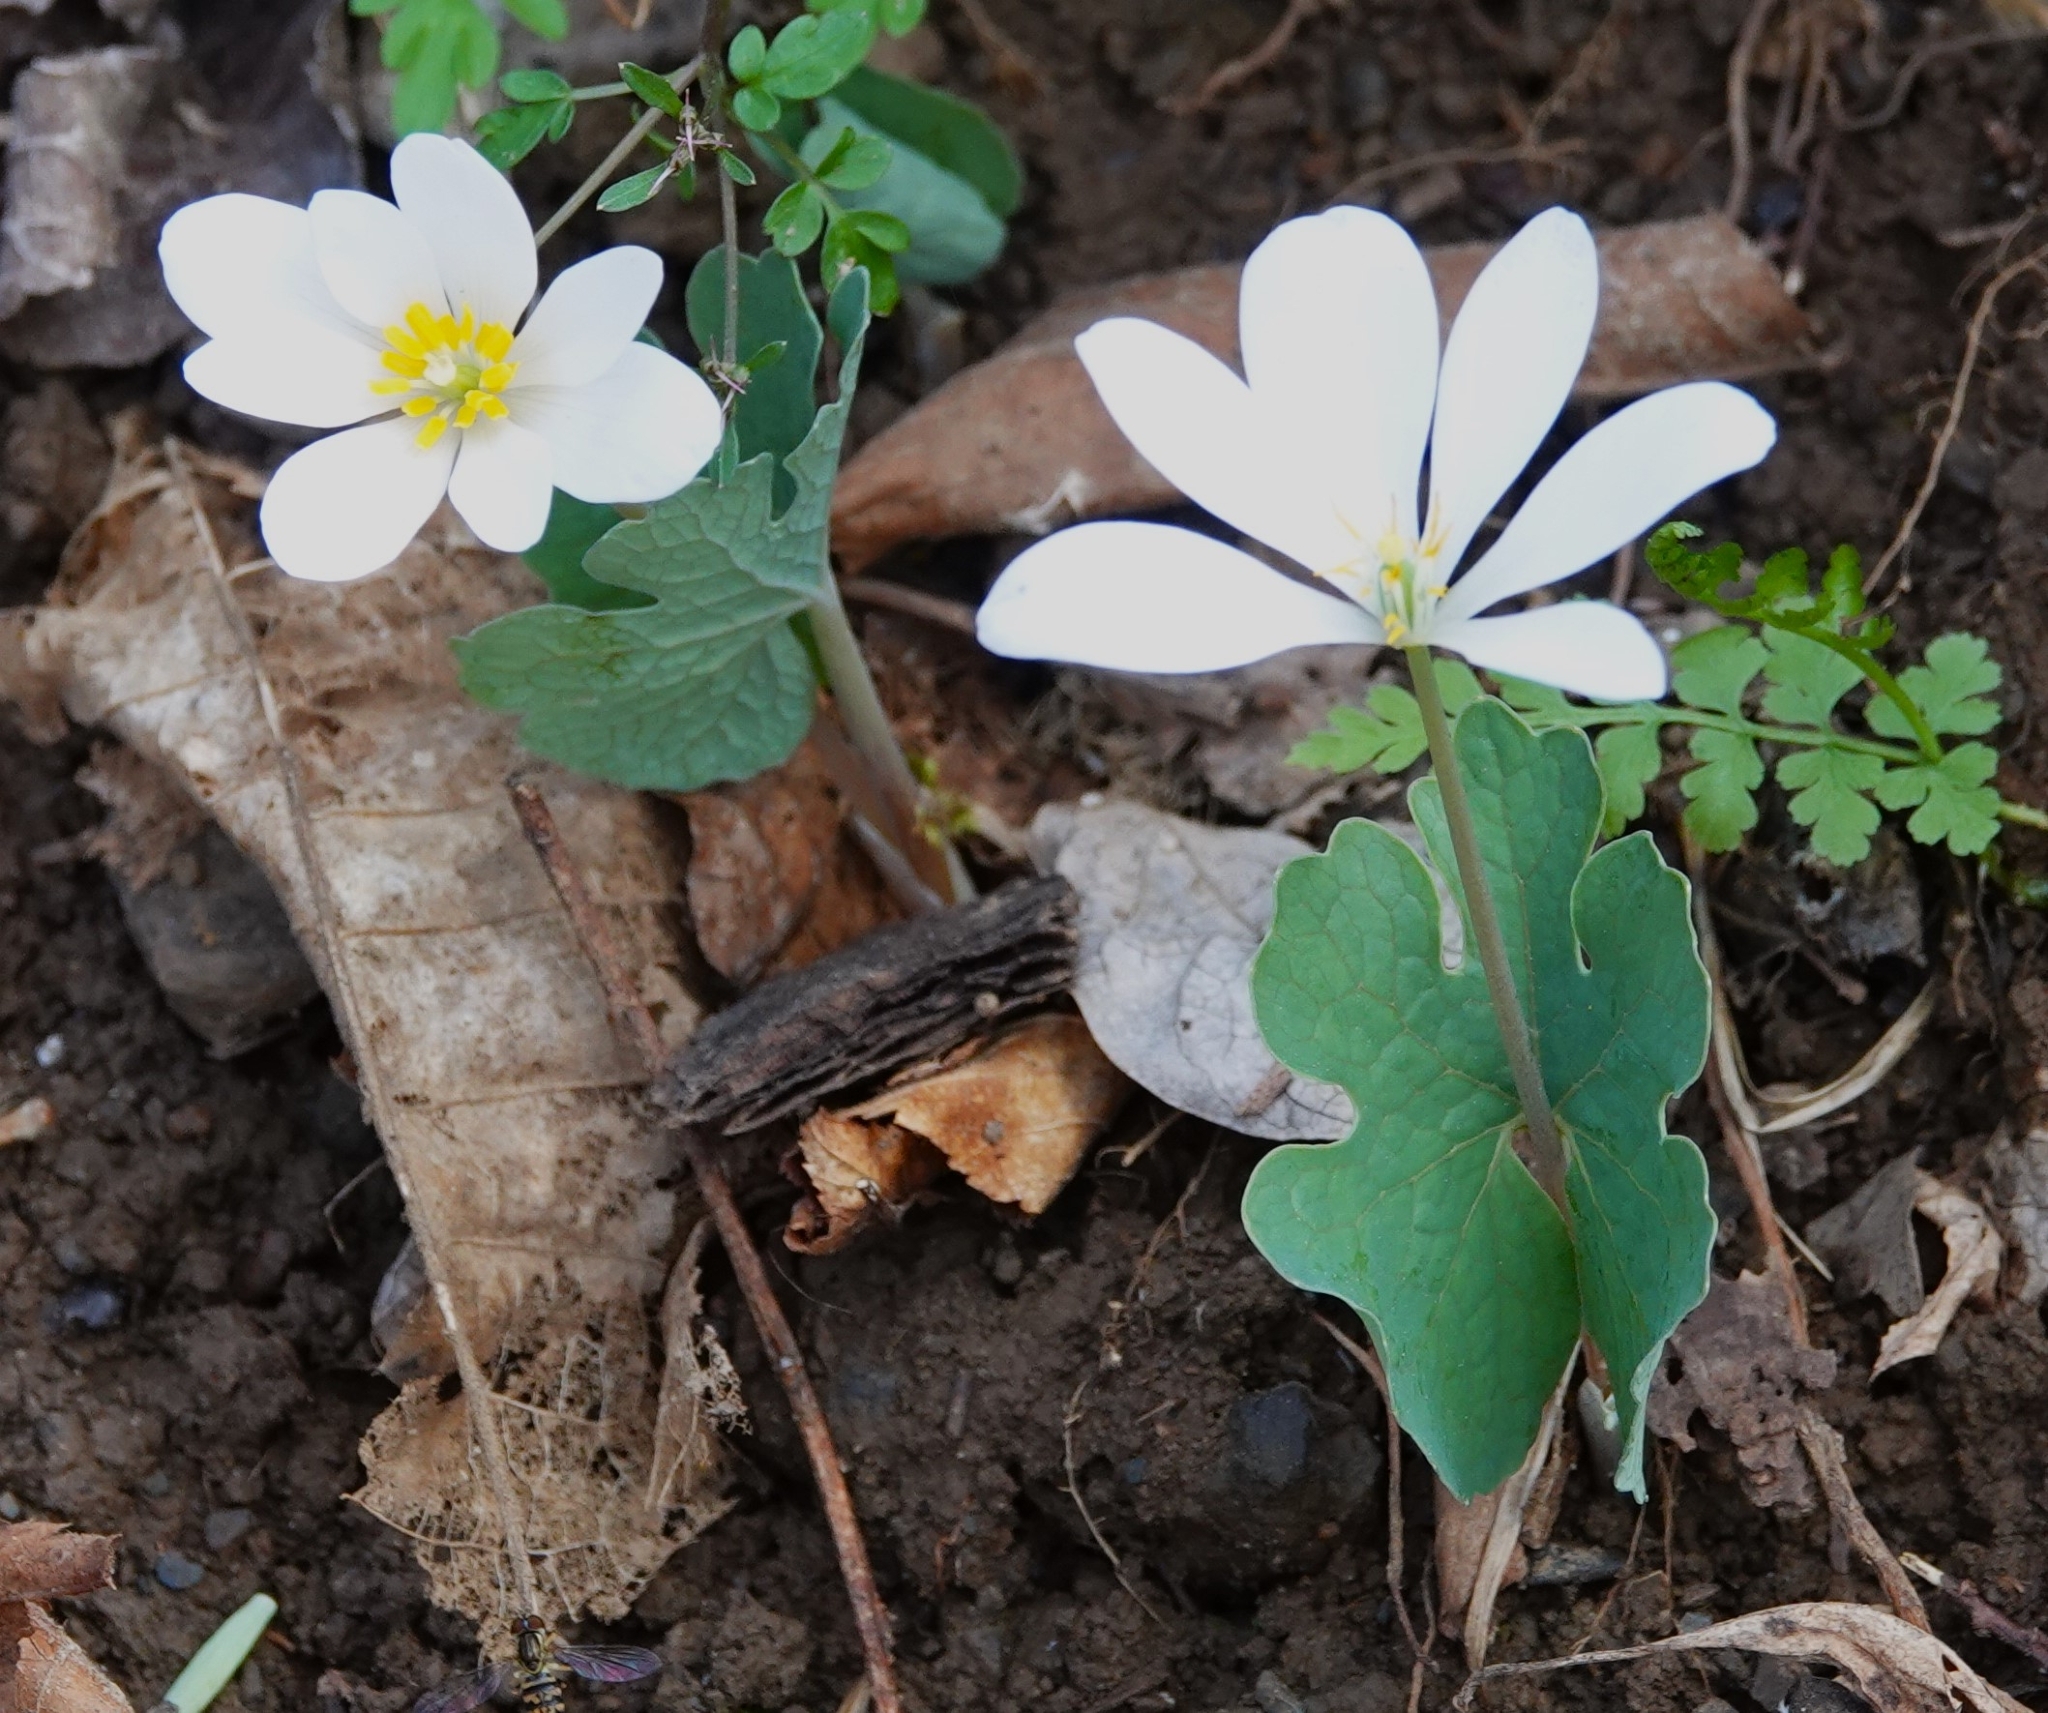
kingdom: Plantae
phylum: Tracheophyta
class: Magnoliopsida
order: Ranunculales
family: Papaveraceae
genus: Sanguinaria
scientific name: Sanguinaria canadensis
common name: Bloodroot
